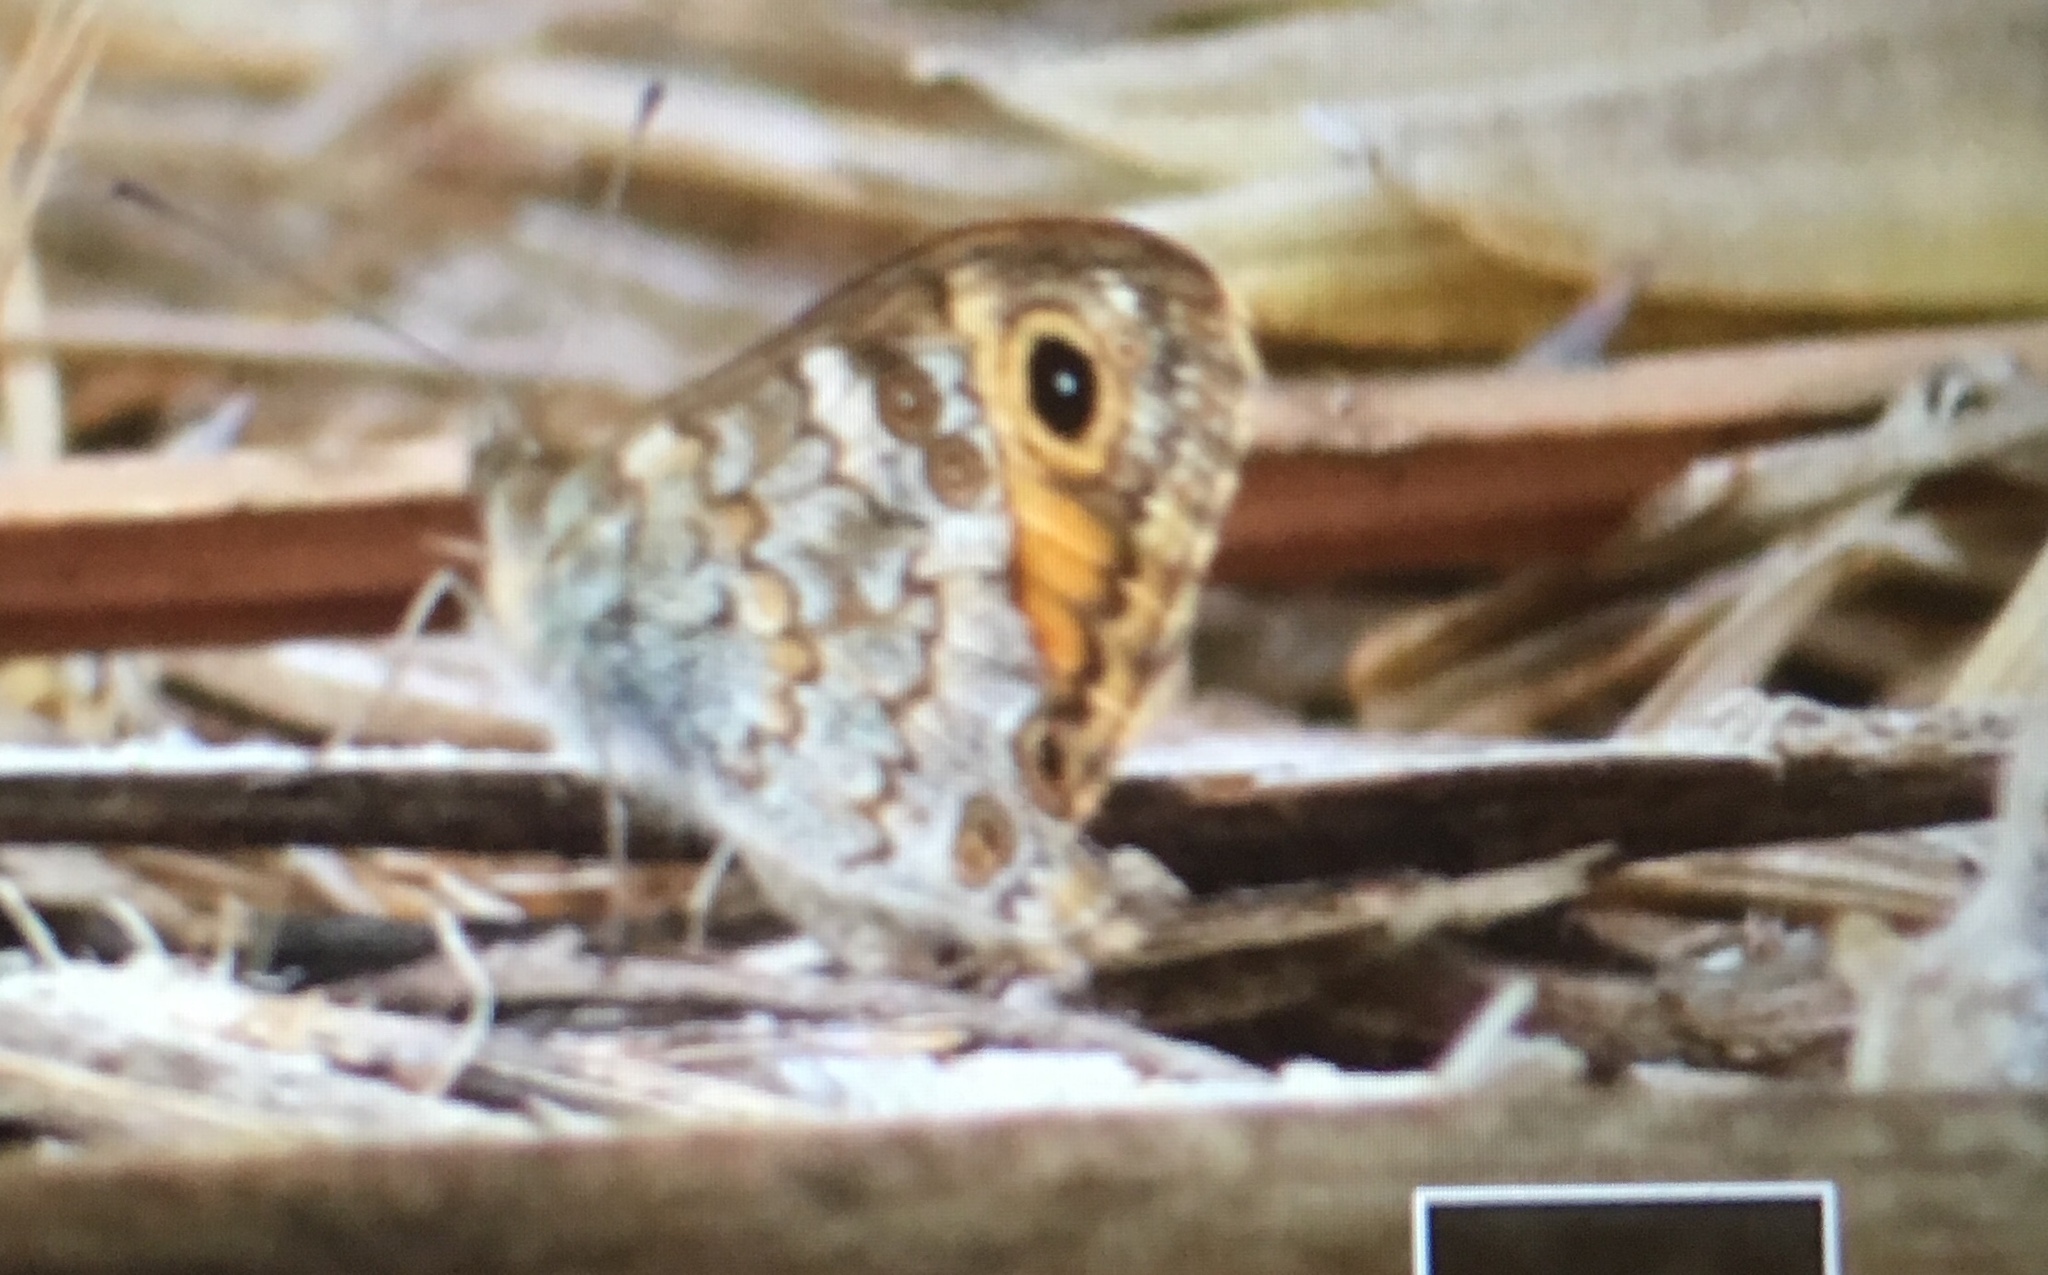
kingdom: Animalia
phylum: Arthropoda
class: Insecta
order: Lepidoptera
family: Nymphalidae
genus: Pararge
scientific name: Pararge Lasiommata megera
